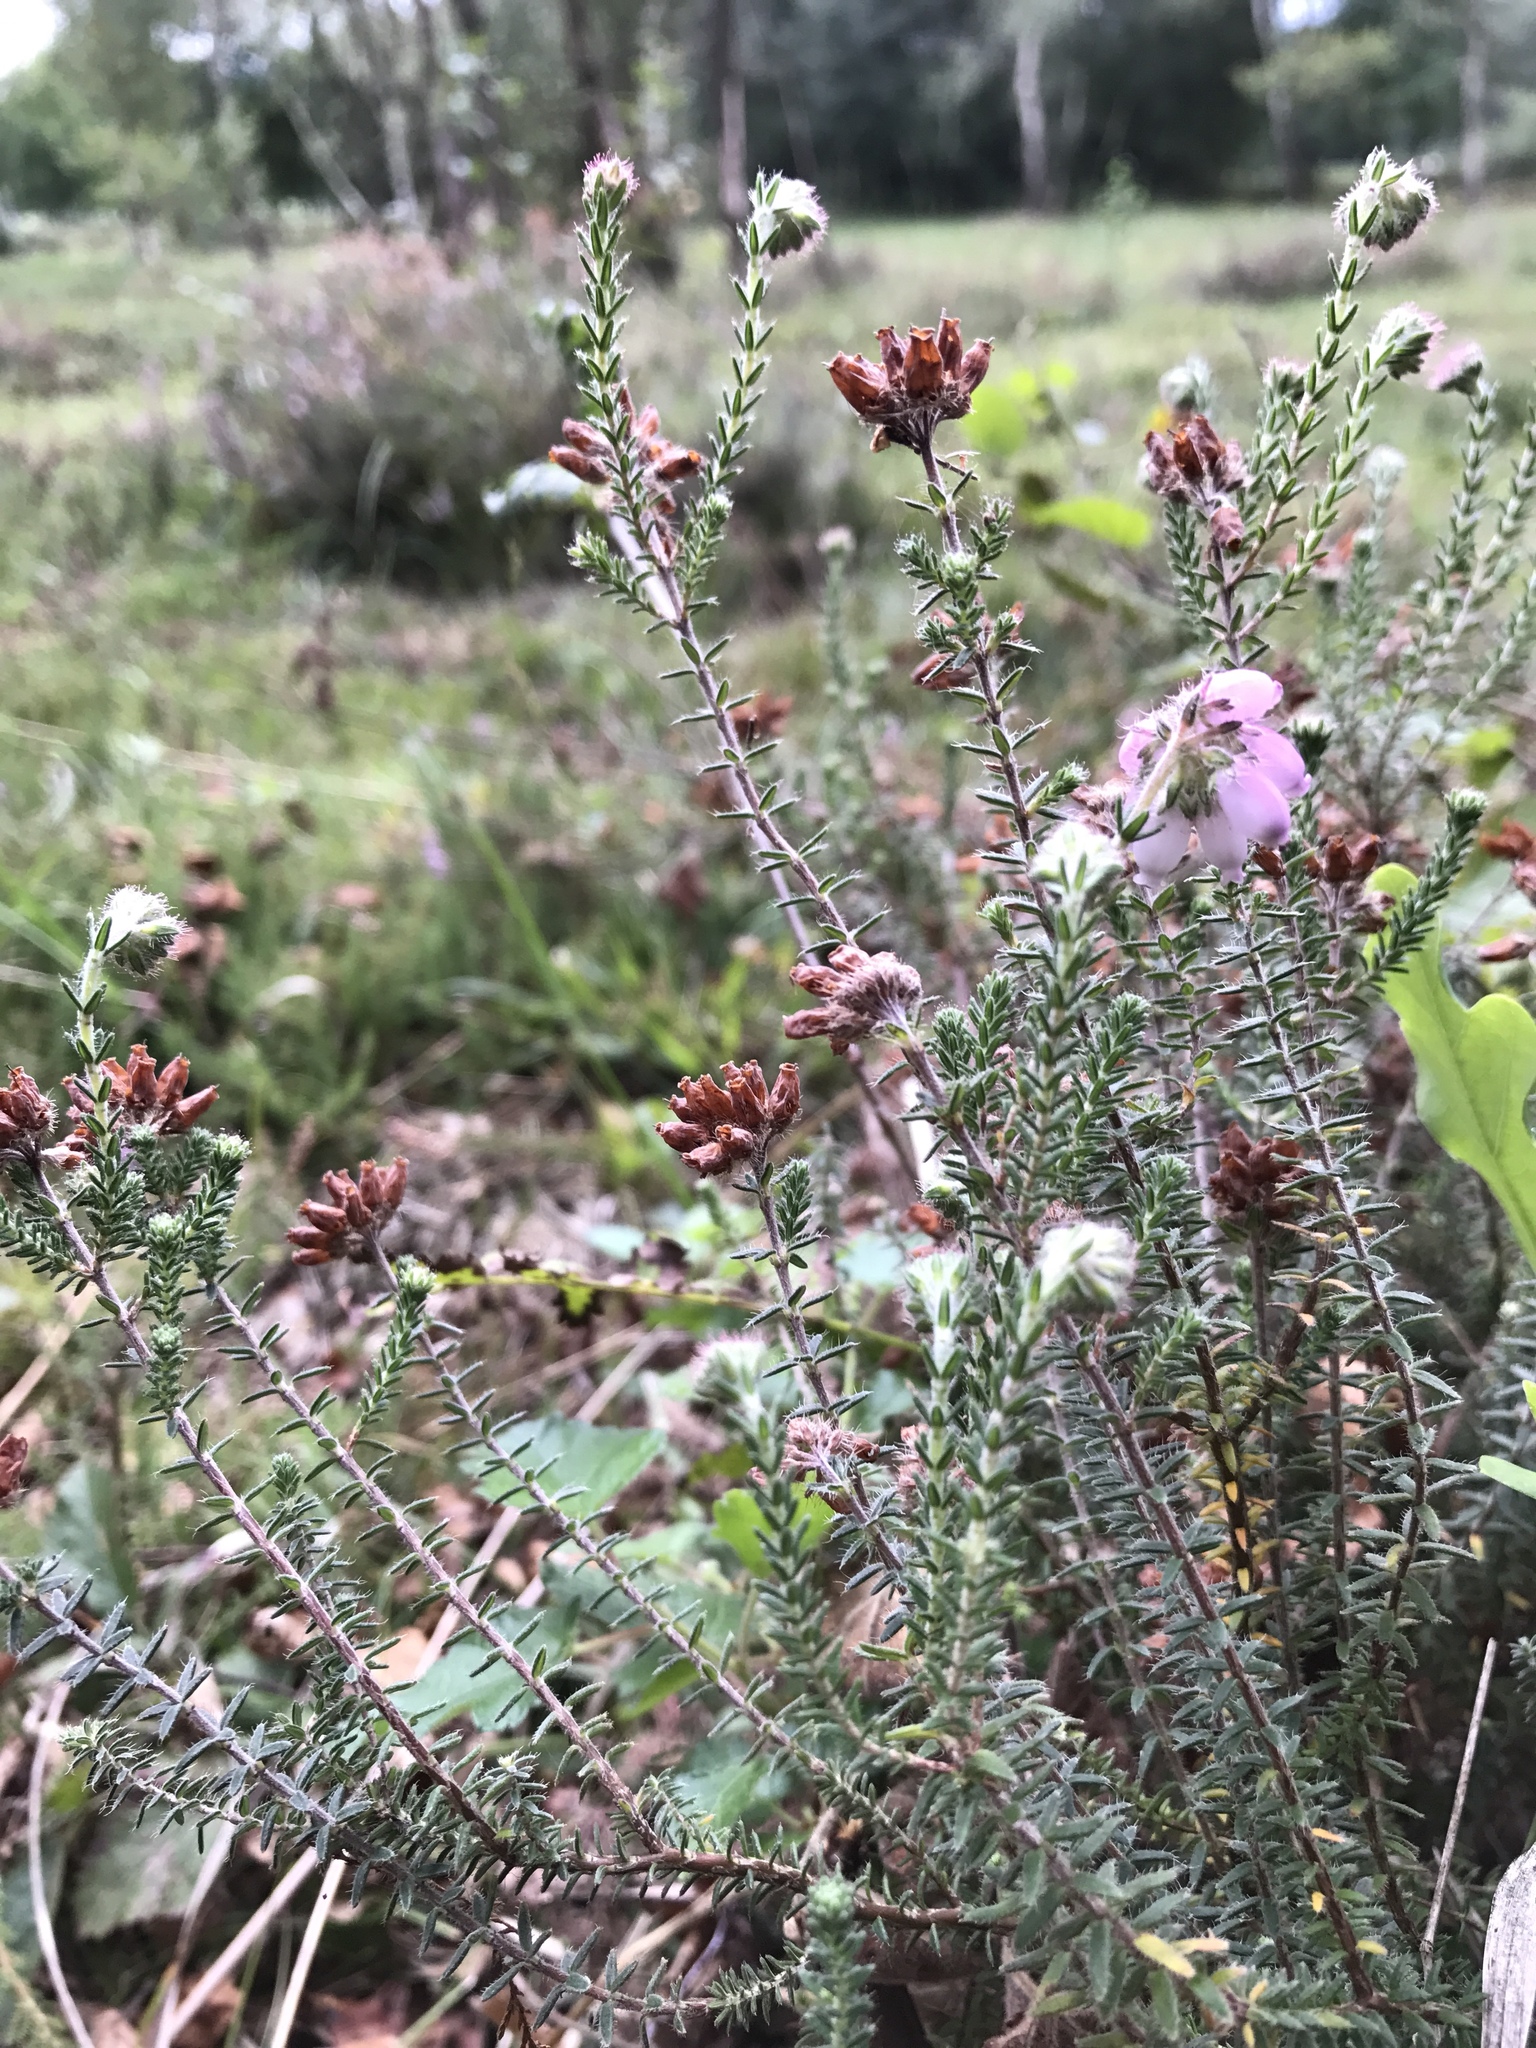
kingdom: Plantae
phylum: Tracheophyta
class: Magnoliopsida
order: Ericales
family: Ericaceae
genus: Erica
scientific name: Erica tetralix
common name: Cross-leaved heath
